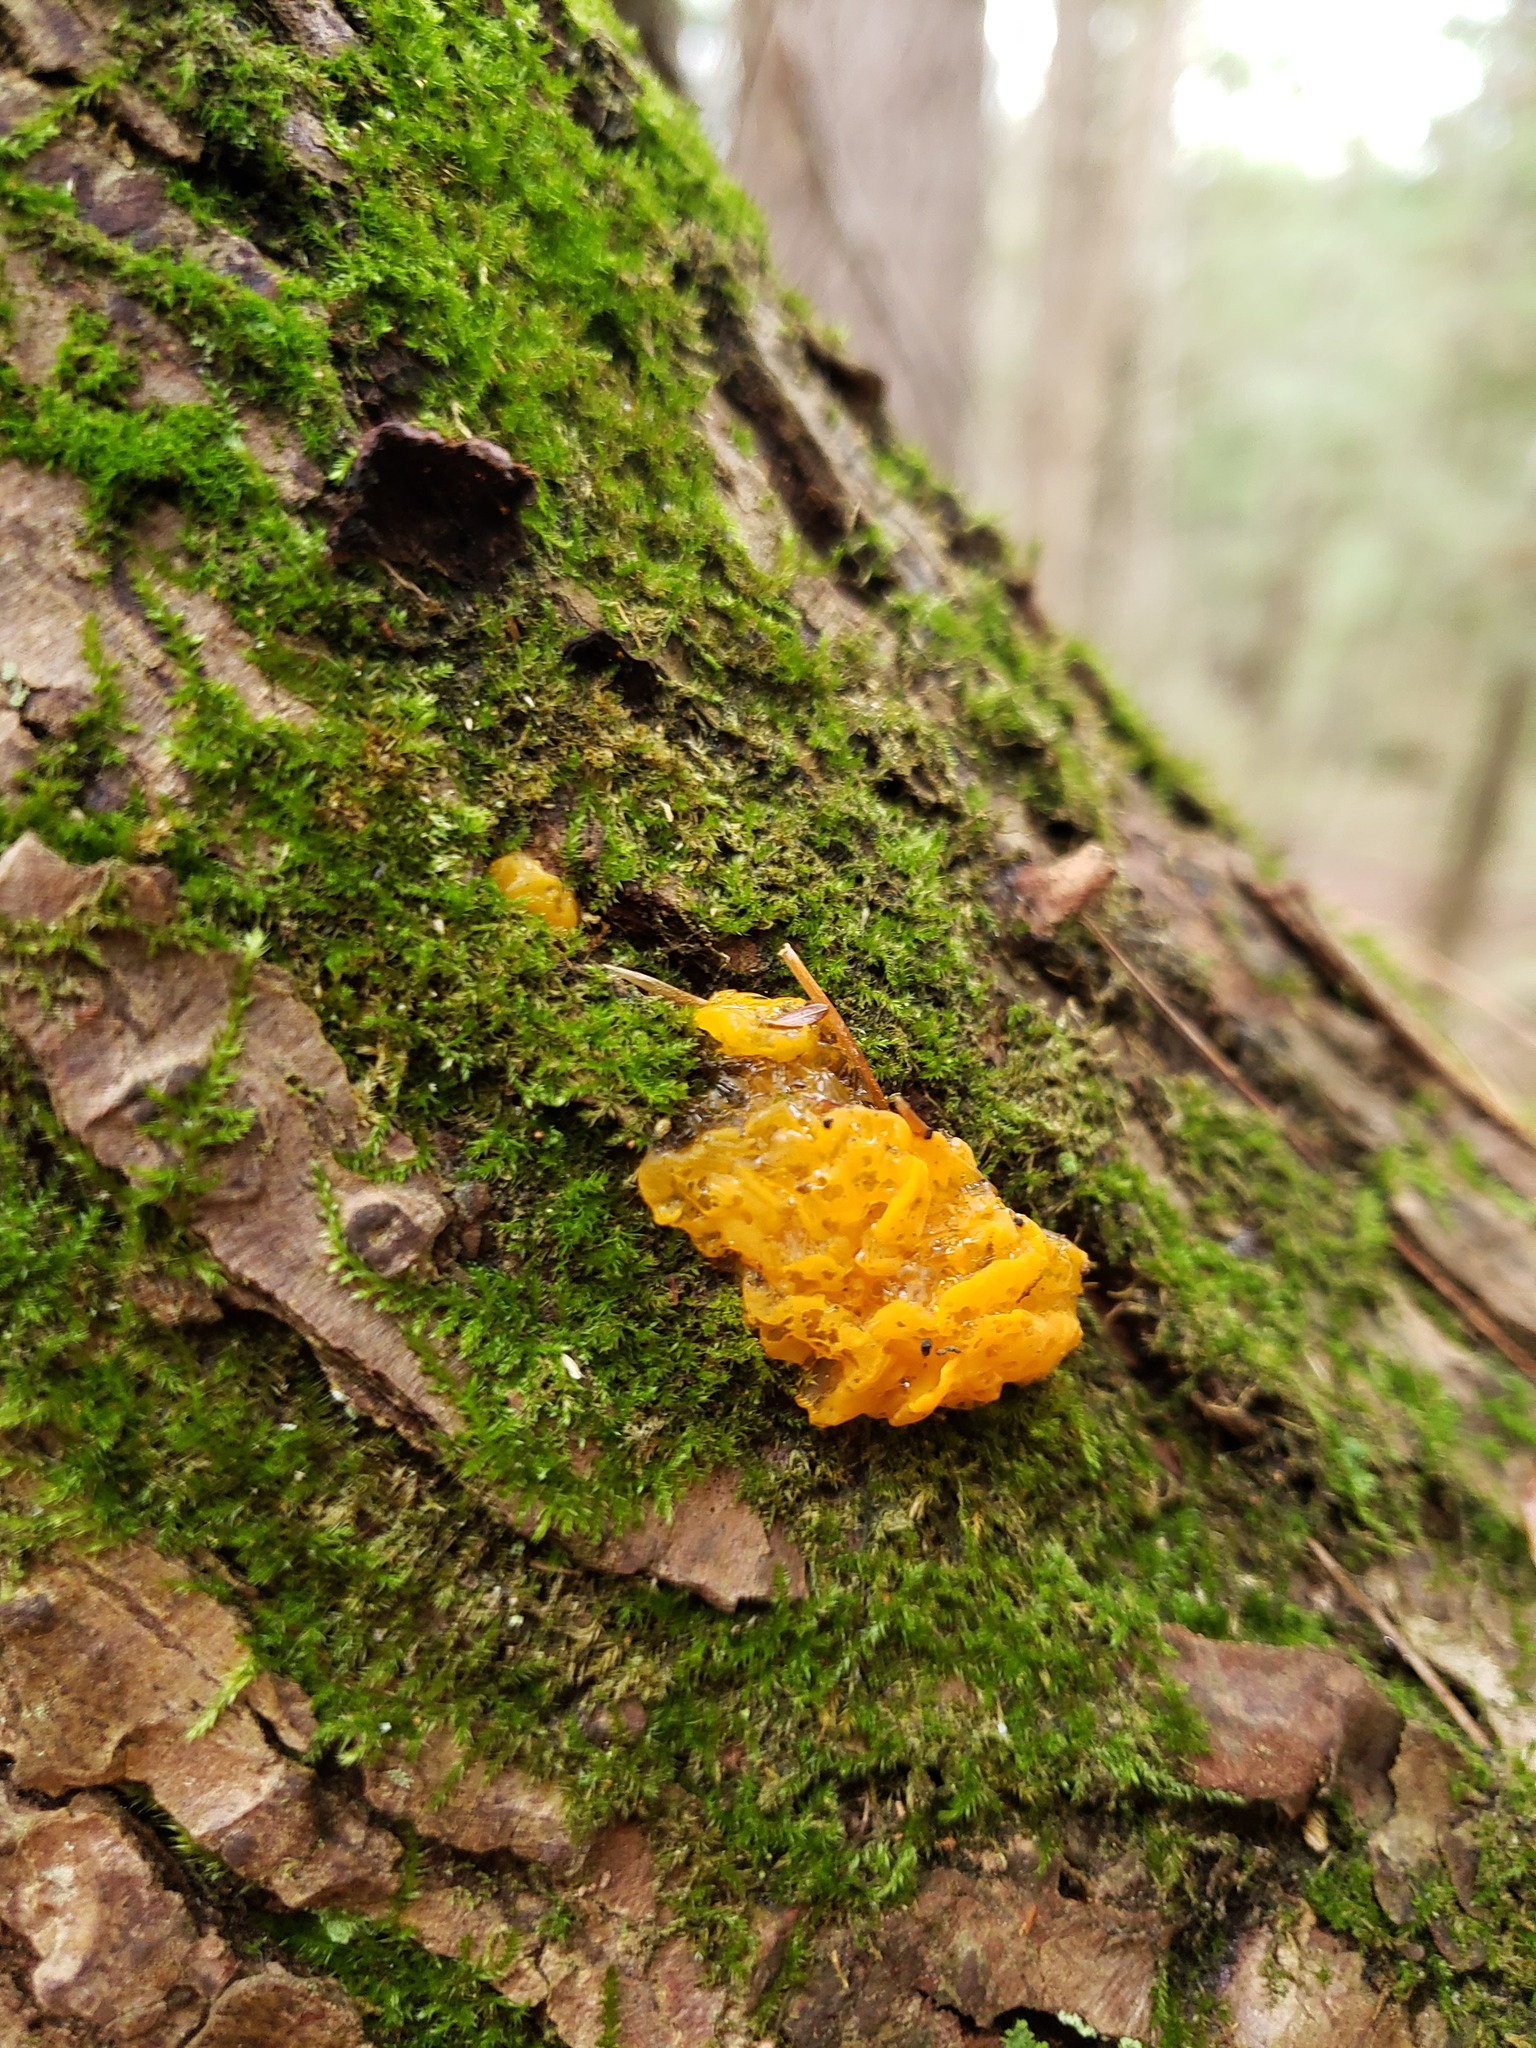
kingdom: Fungi
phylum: Basidiomycota
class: Dacrymycetes
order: Dacrymycetales
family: Dacrymycetaceae
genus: Dacrymyces
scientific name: Dacrymyces chrysospermus
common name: Orange jelly spot
